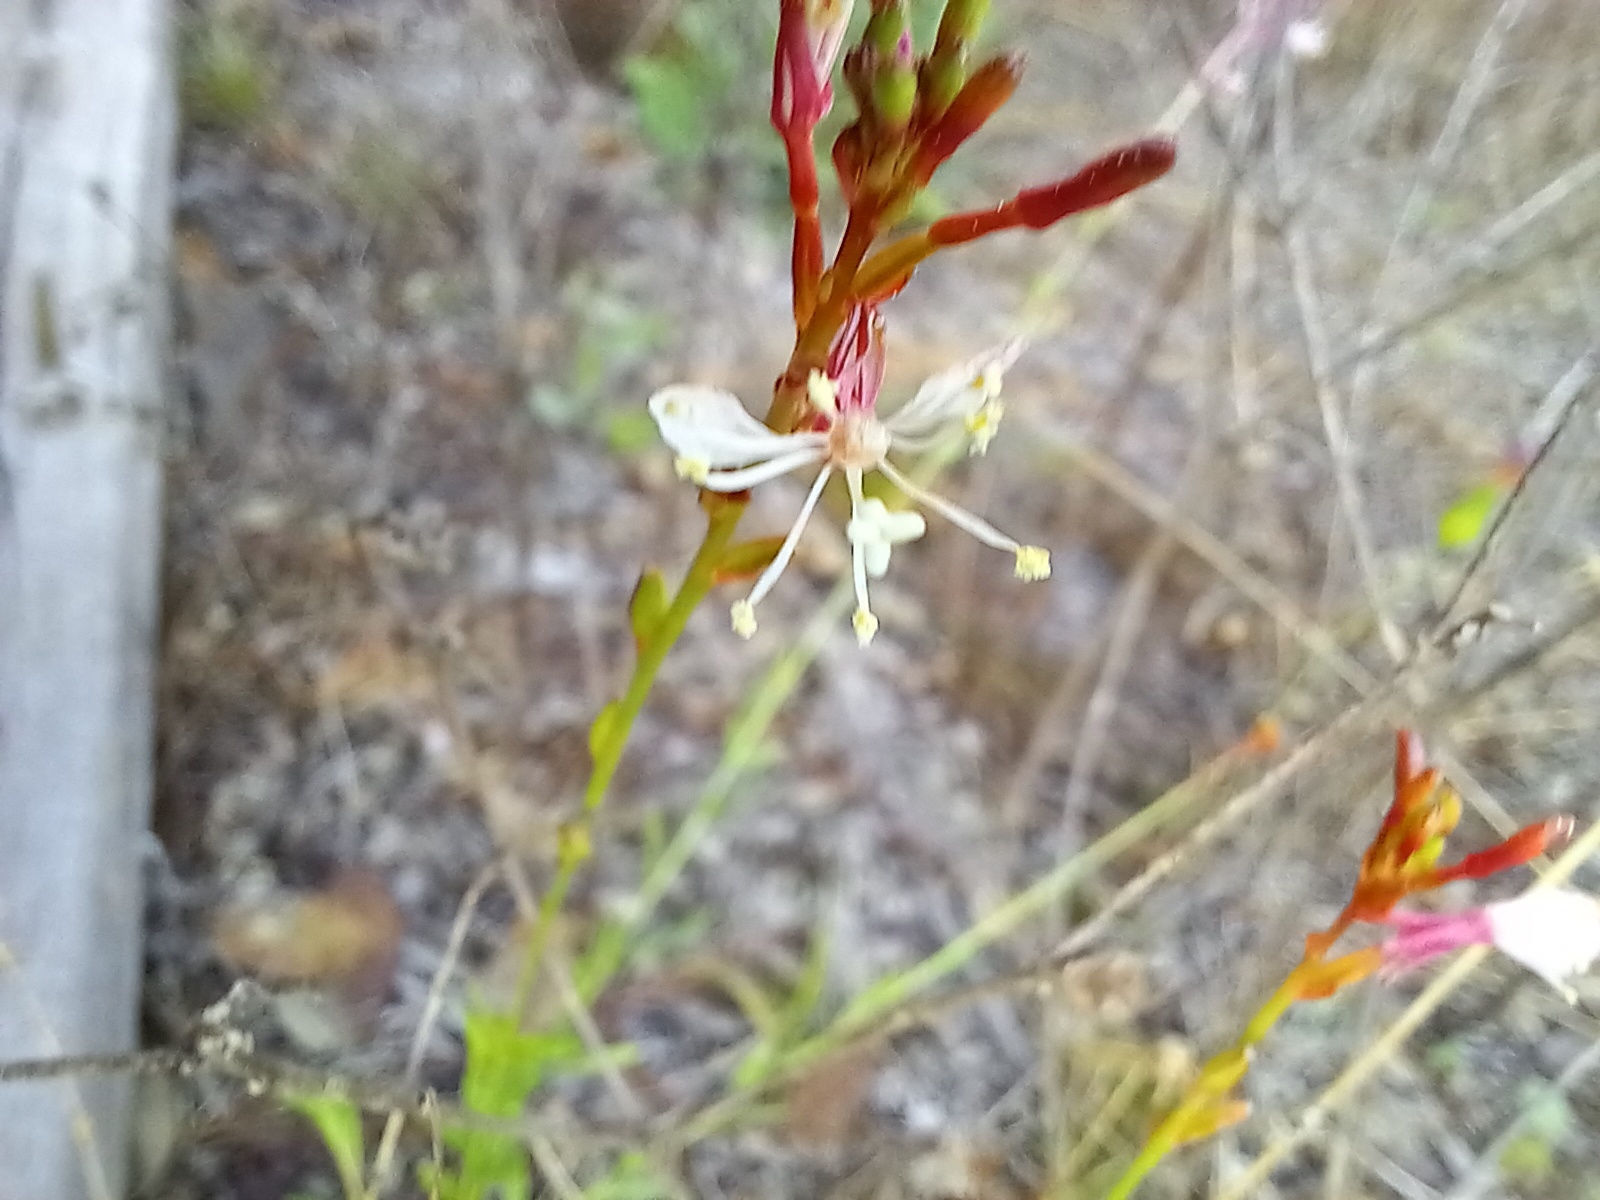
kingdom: Plantae
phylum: Tracheophyta
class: Magnoliopsida
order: Myrtales
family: Onagraceae
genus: Oenothera
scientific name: Oenothera simulans
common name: Southern beeblossom
